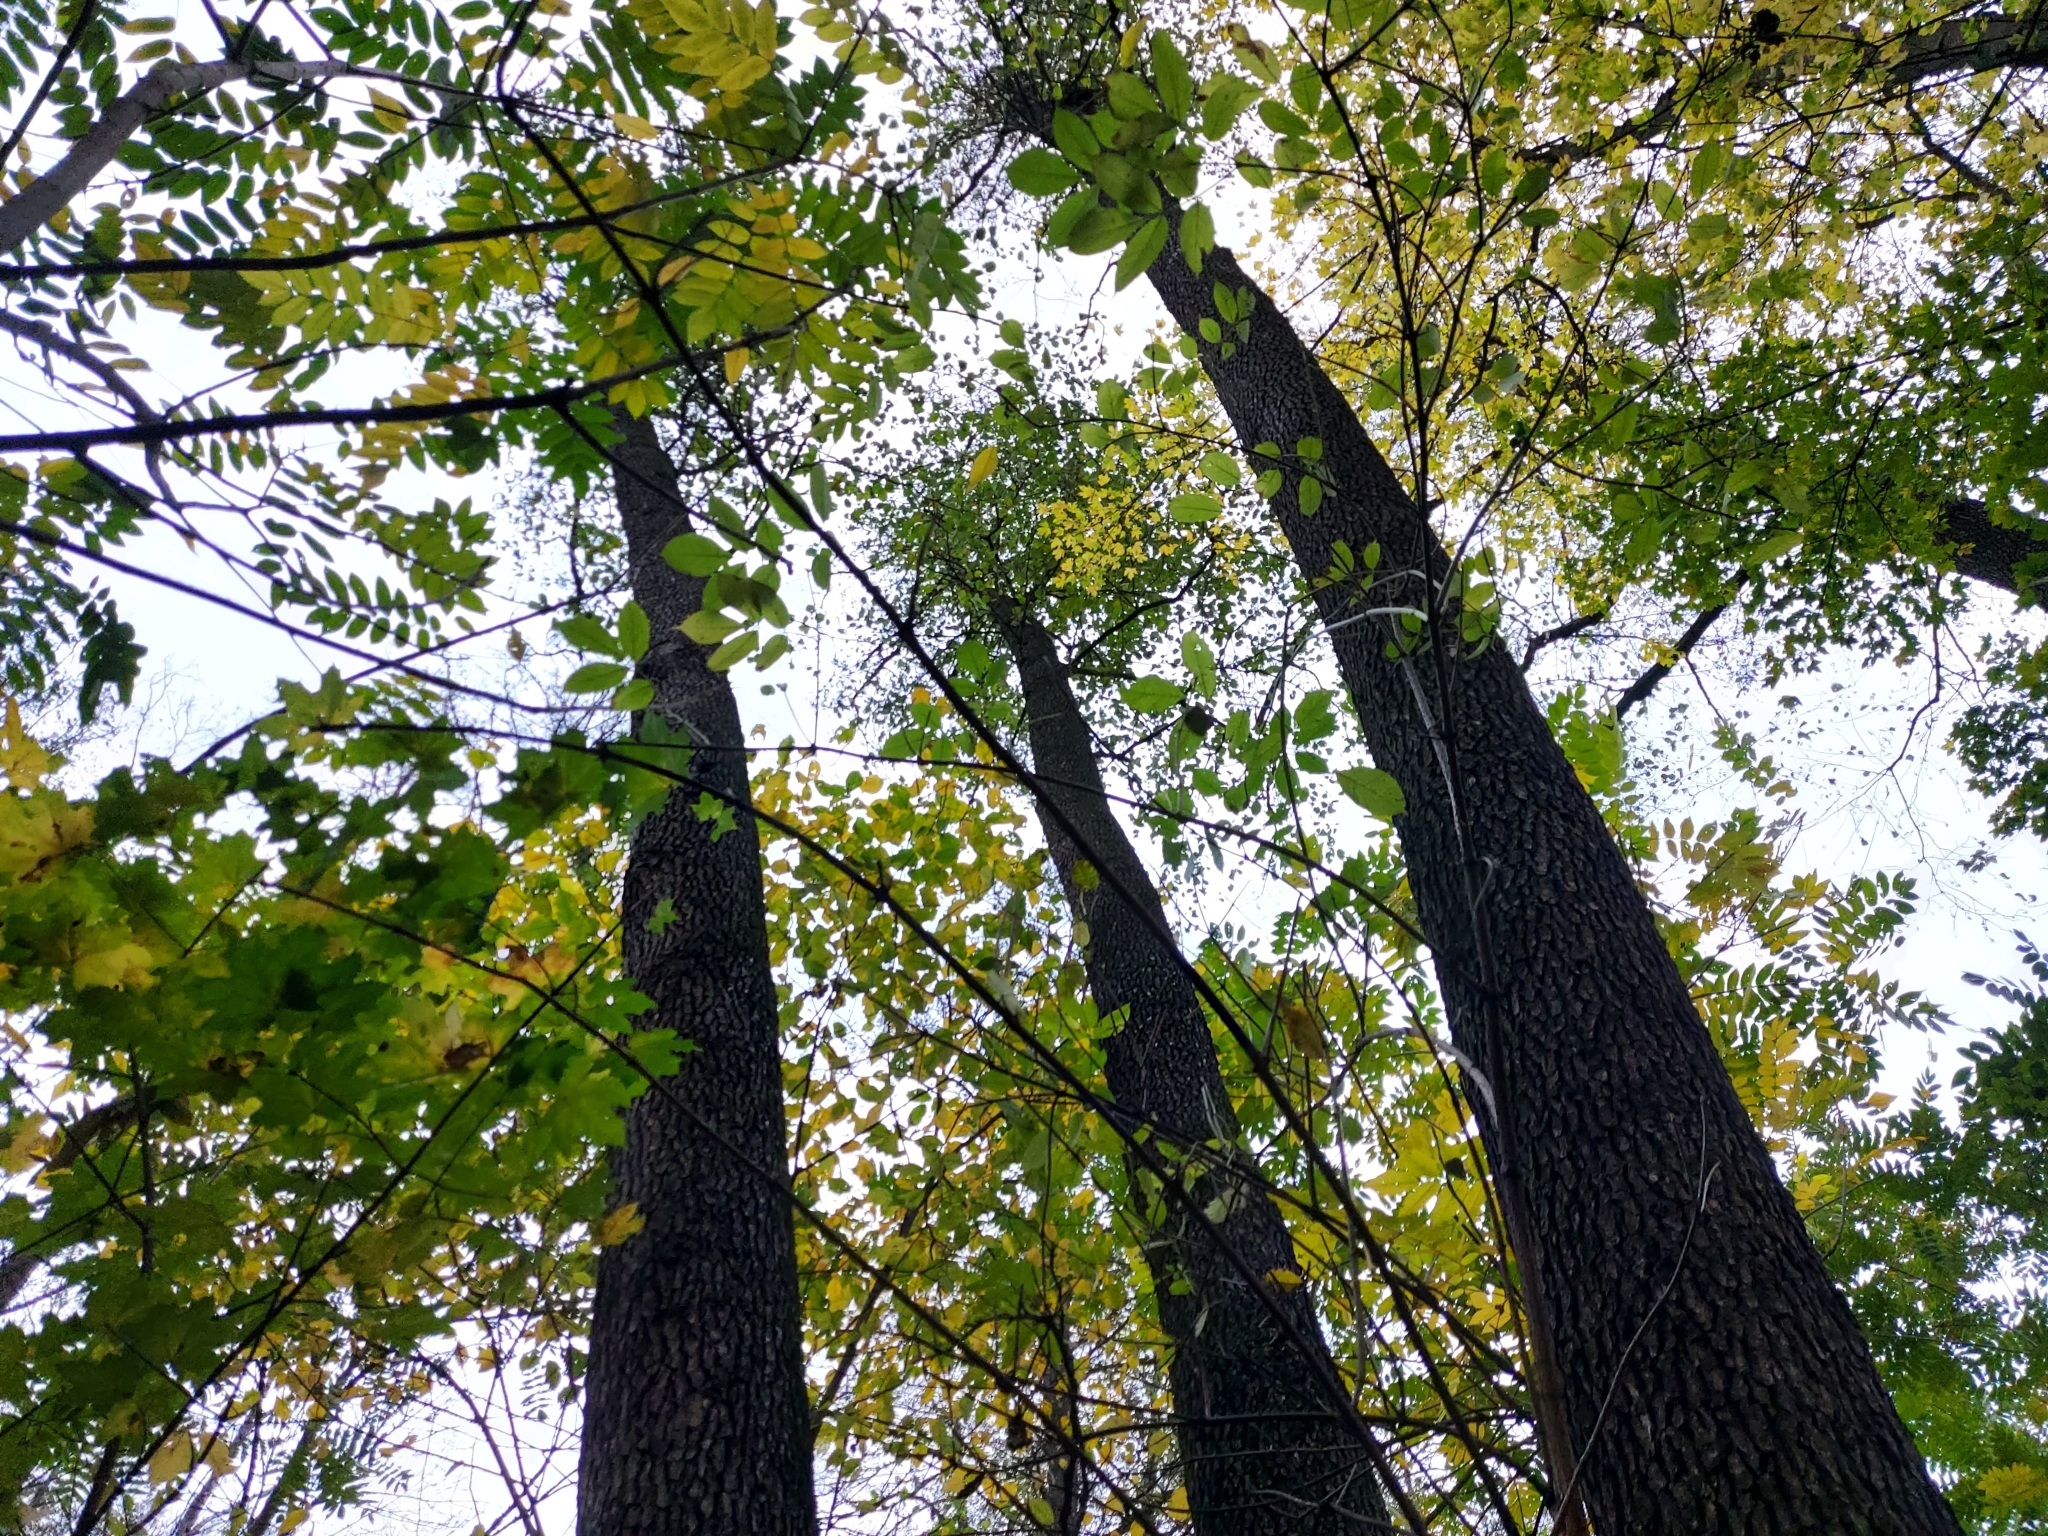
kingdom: Plantae
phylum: Tracheophyta
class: Magnoliopsida
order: Fagales
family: Betulaceae
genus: Alnus
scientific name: Alnus glutinosa
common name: Black alder
